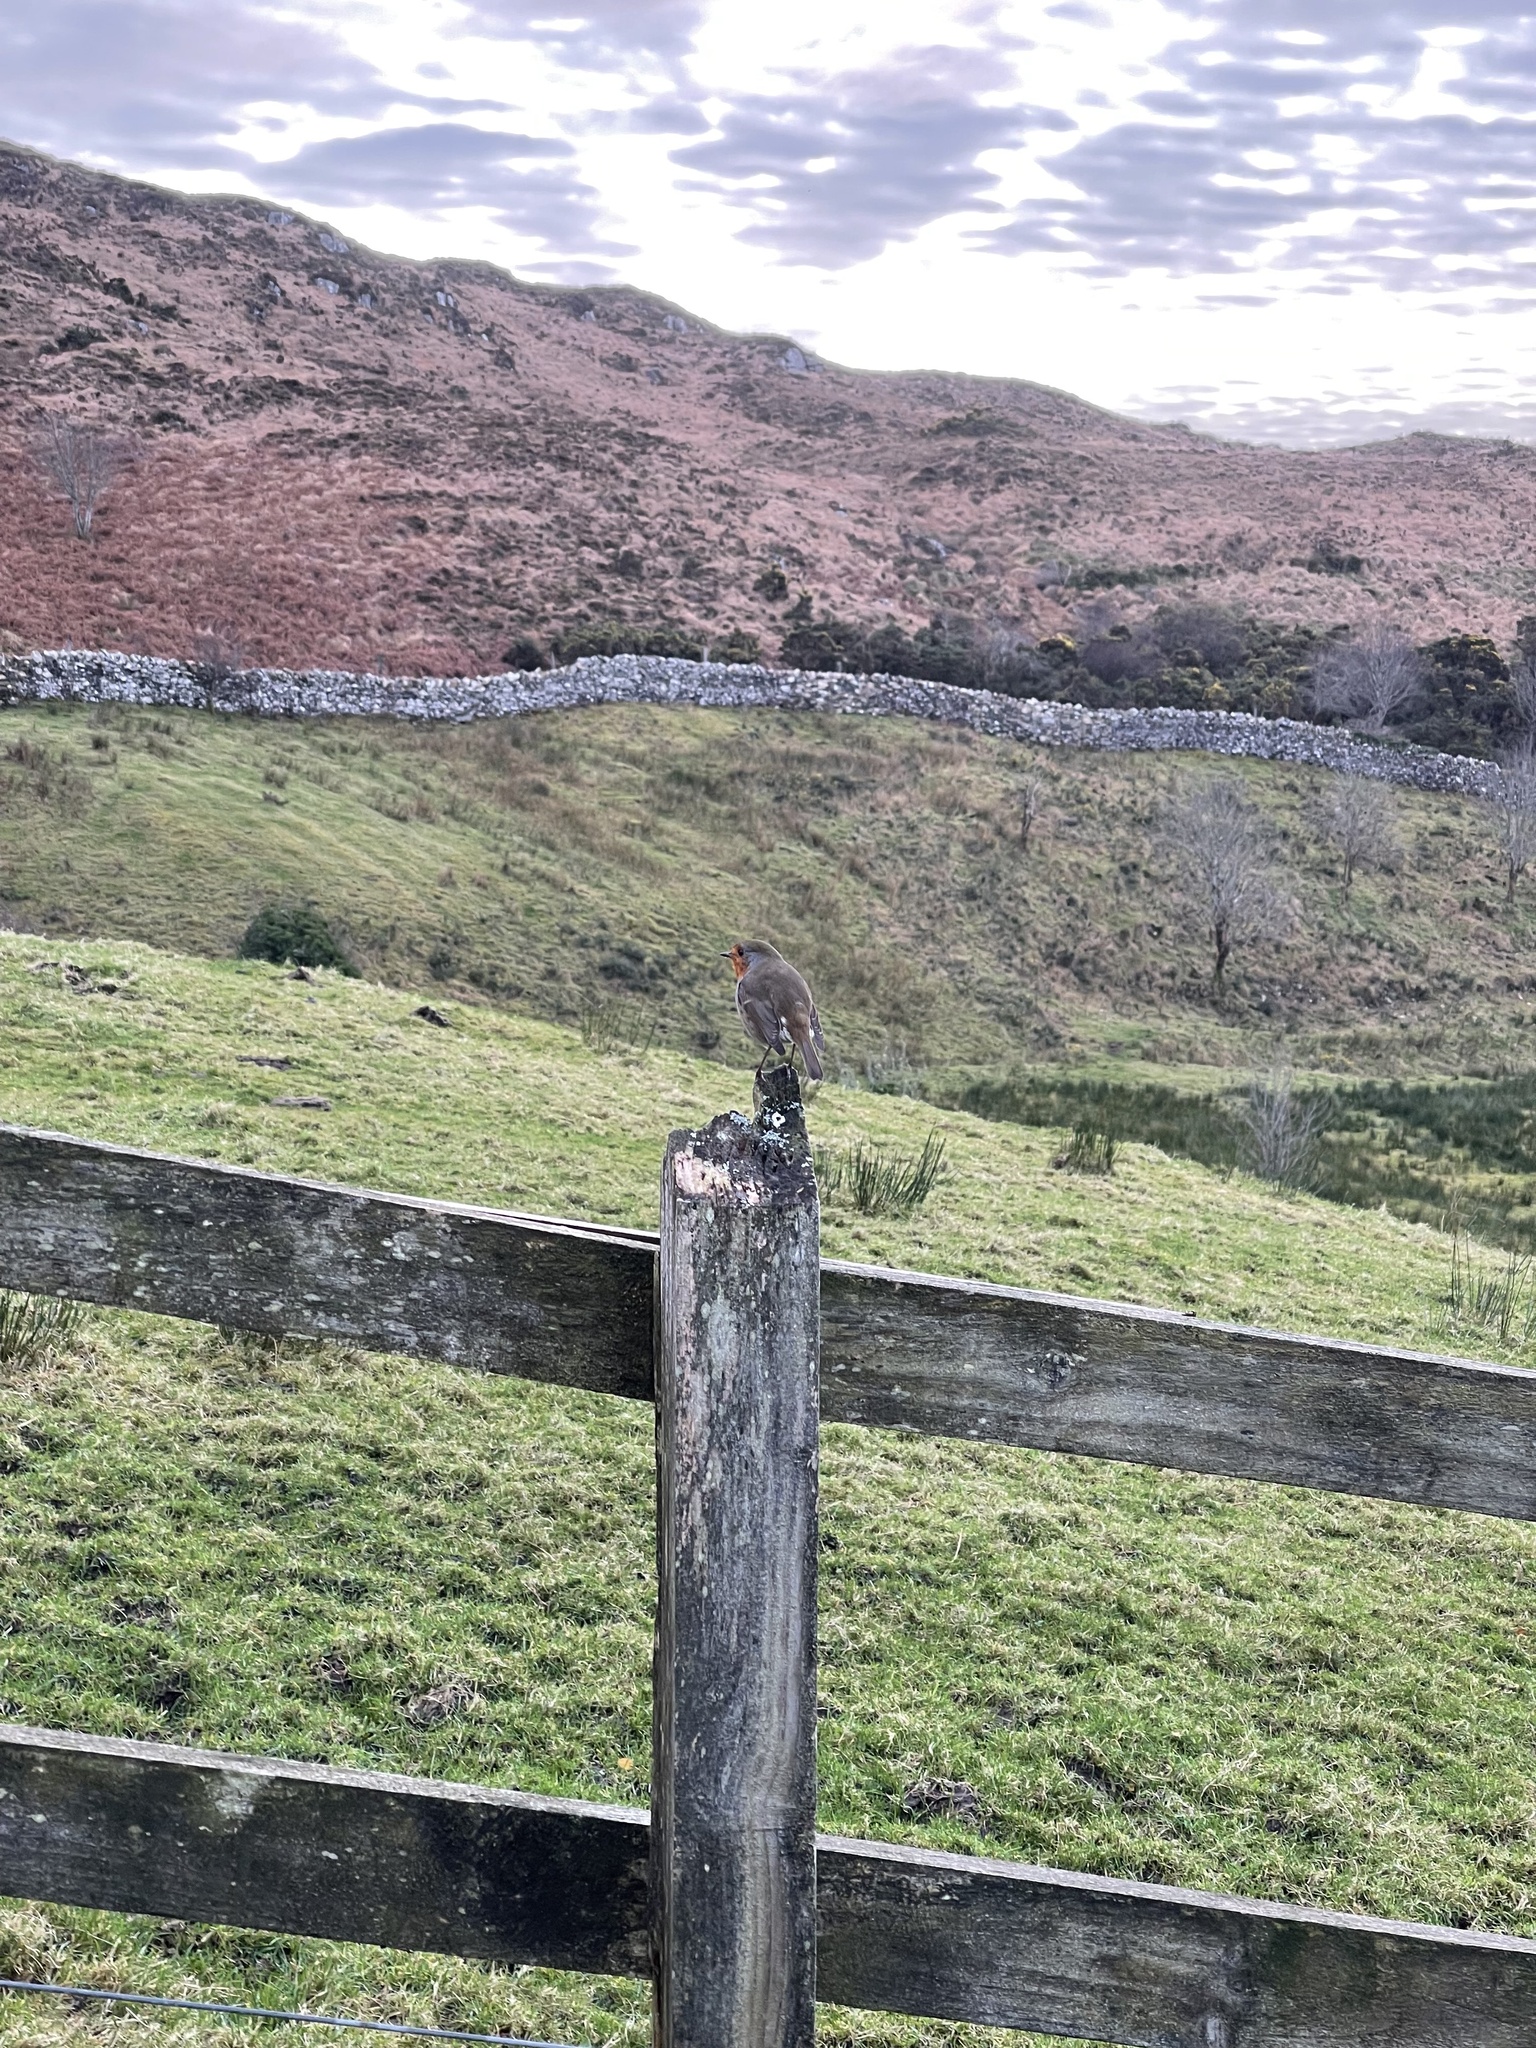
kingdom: Animalia
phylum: Chordata
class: Aves
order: Passeriformes
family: Muscicapidae
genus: Erithacus
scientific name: Erithacus rubecula
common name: European robin
